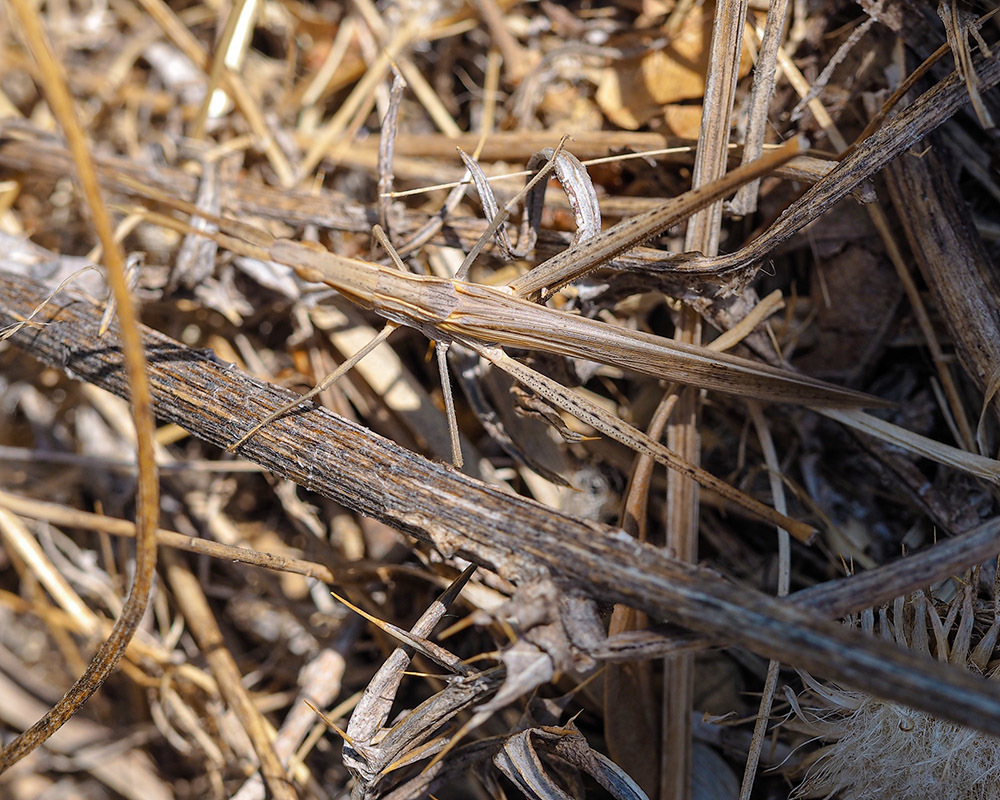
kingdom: Animalia
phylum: Arthropoda
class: Insecta
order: Orthoptera
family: Acrididae
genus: Acrida
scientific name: Acrida ungarica
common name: Common cone-headed grasshopper
